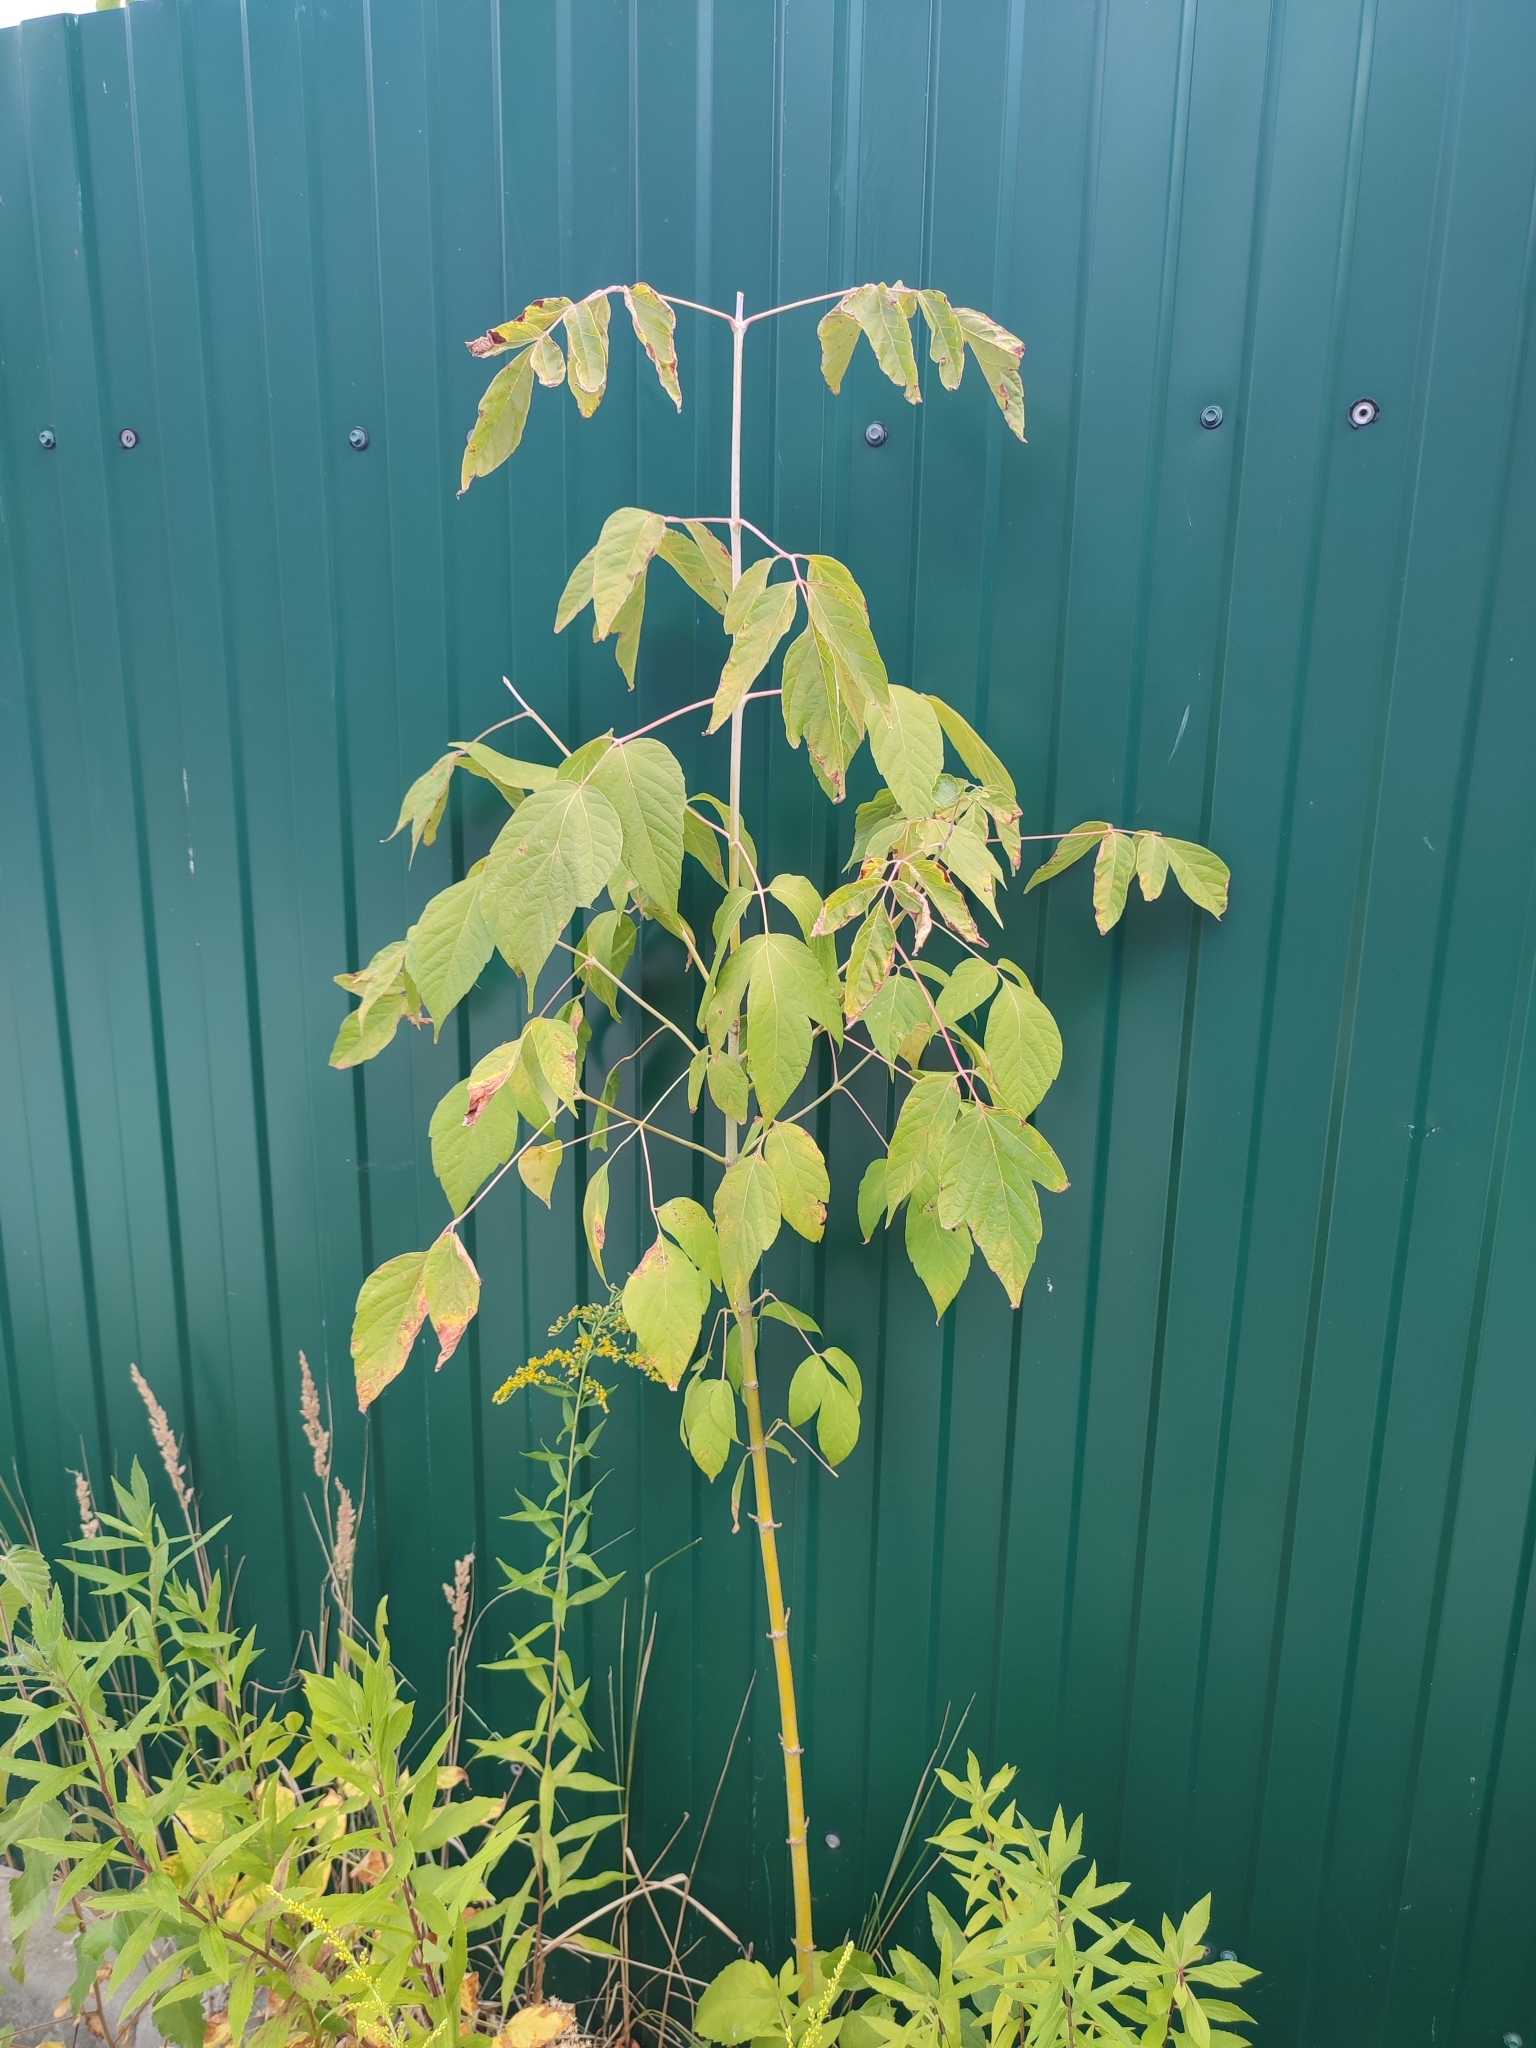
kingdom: Plantae
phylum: Tracheophyta
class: Magnoliopsida
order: Sapindales
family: Sapindaceae
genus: Acer
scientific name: Acer negundo
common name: Ashleaf maple
